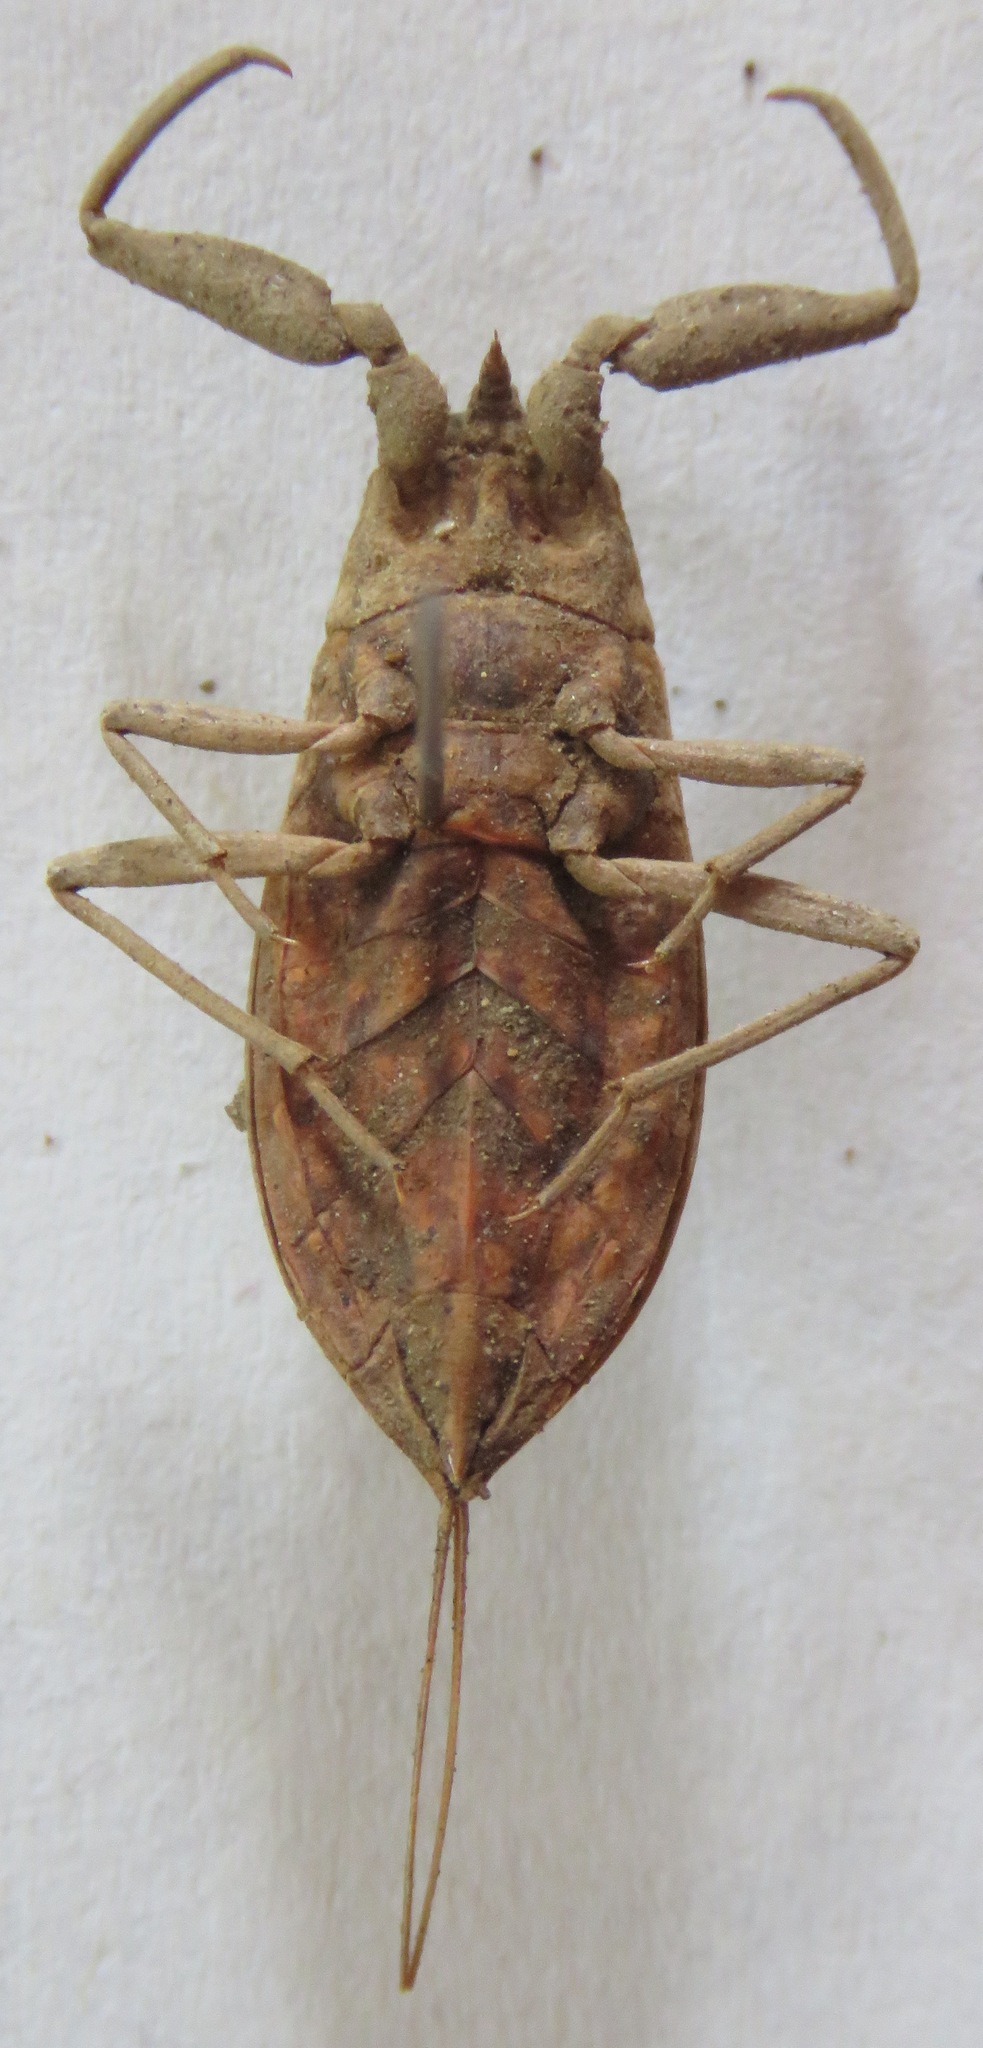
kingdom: Animalia
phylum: Arthropoda
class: Insecta
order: Hemiptera
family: Nepidae
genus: Nepa
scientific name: Nepa cinerea
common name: Water scorpion
